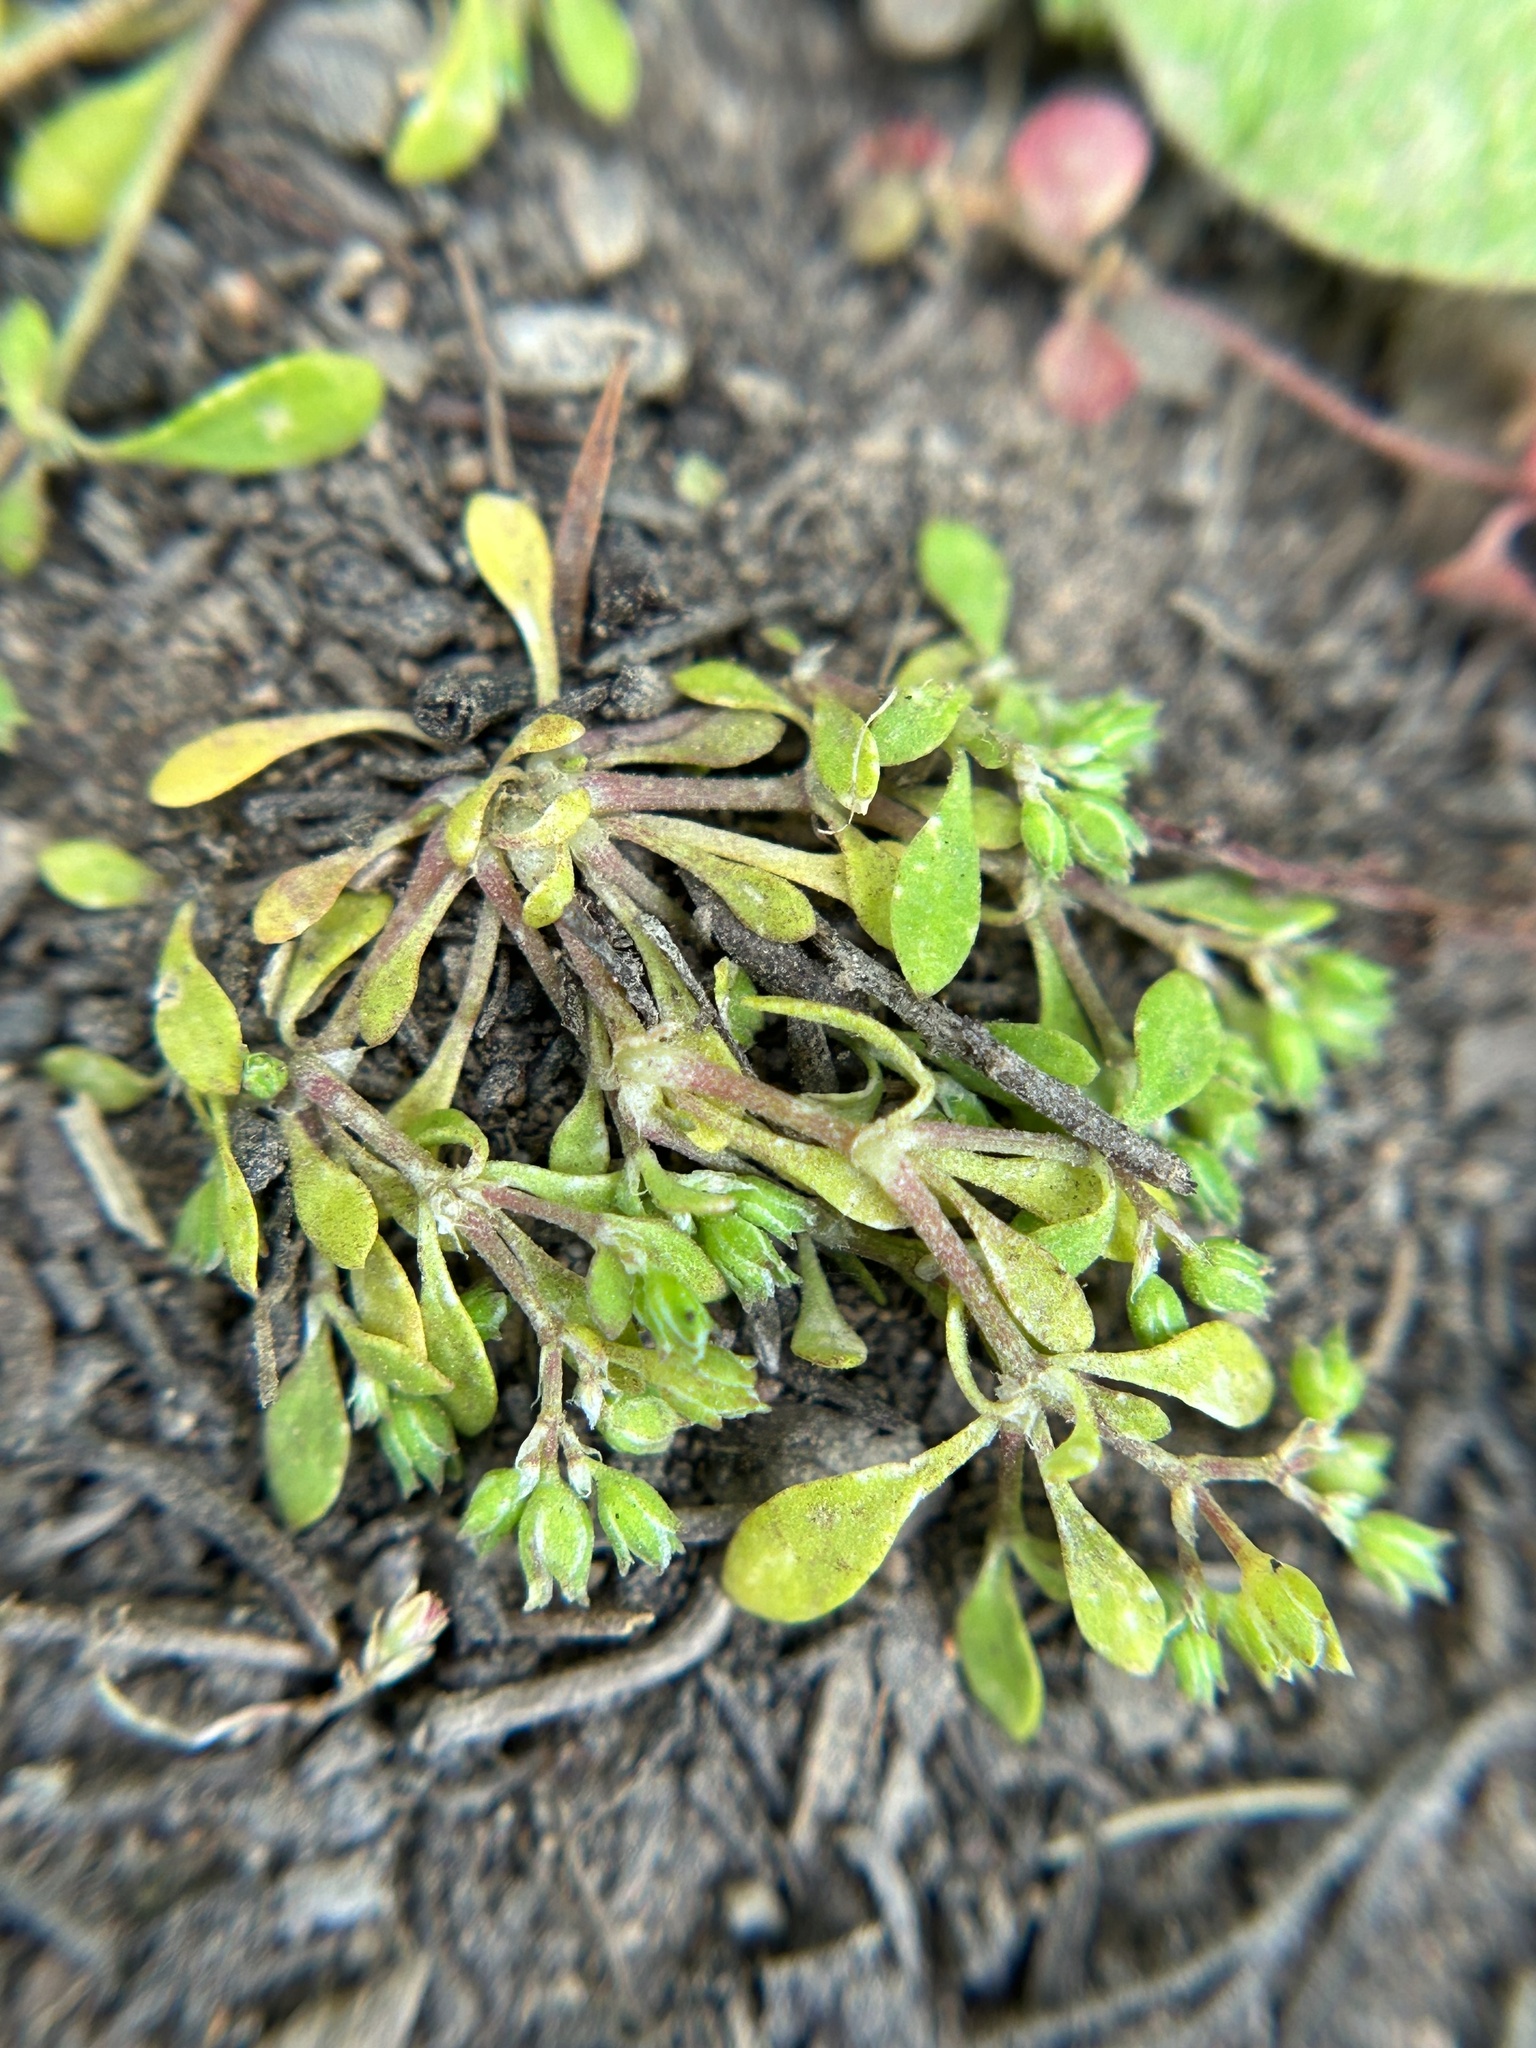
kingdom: Plantae
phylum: Tracheophyta
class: Magnoliopsida
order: Caryophyllales
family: Caryophyllaceae
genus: Polycarpon
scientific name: Polycarpon depressum
